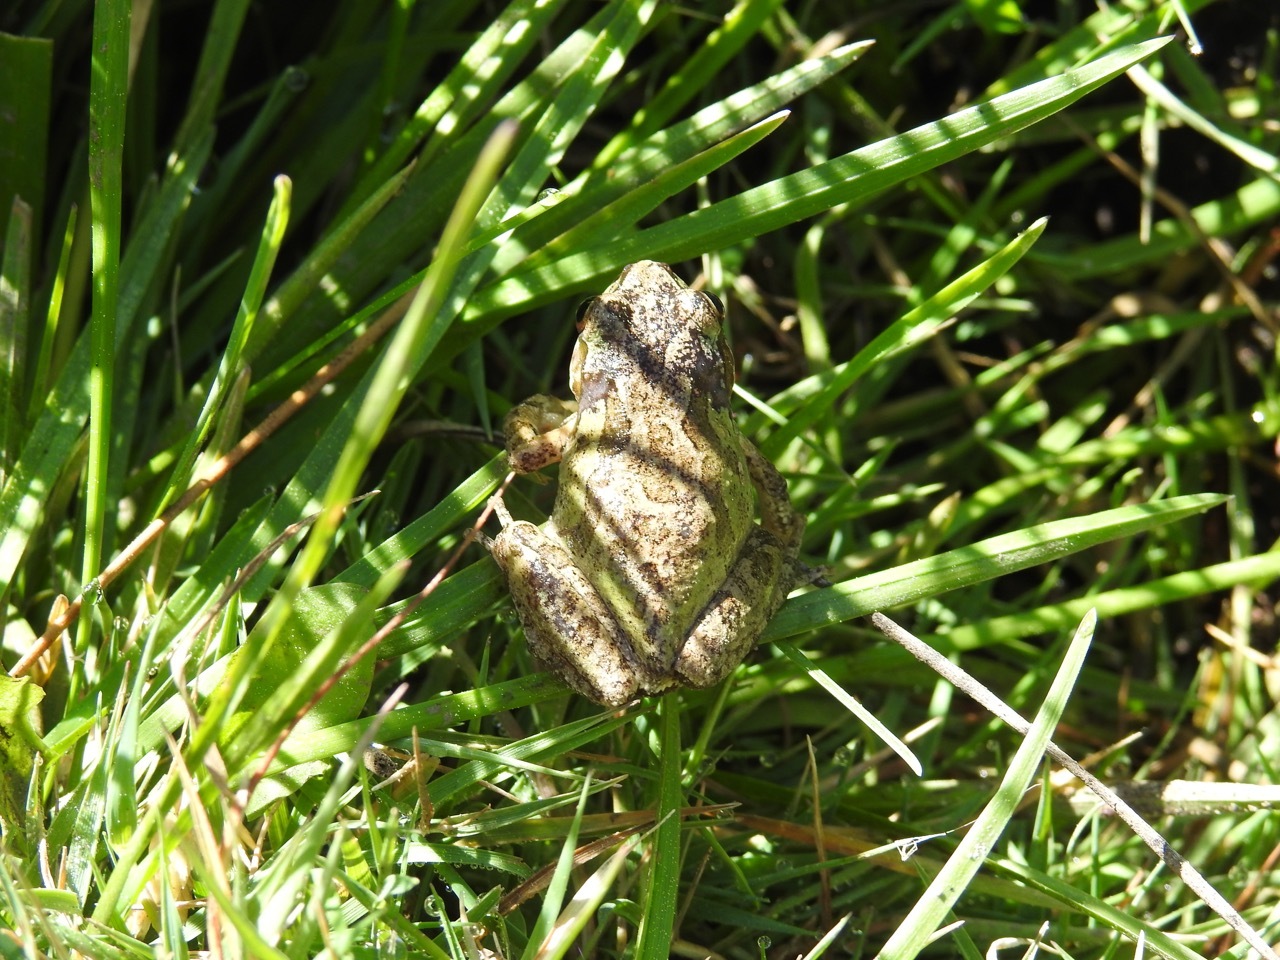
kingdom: Animalia
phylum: Chordata
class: Amphibia
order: Anura
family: Hylidae
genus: Pseudacris
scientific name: Pseudacris regilla
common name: Pacific chorus frog
